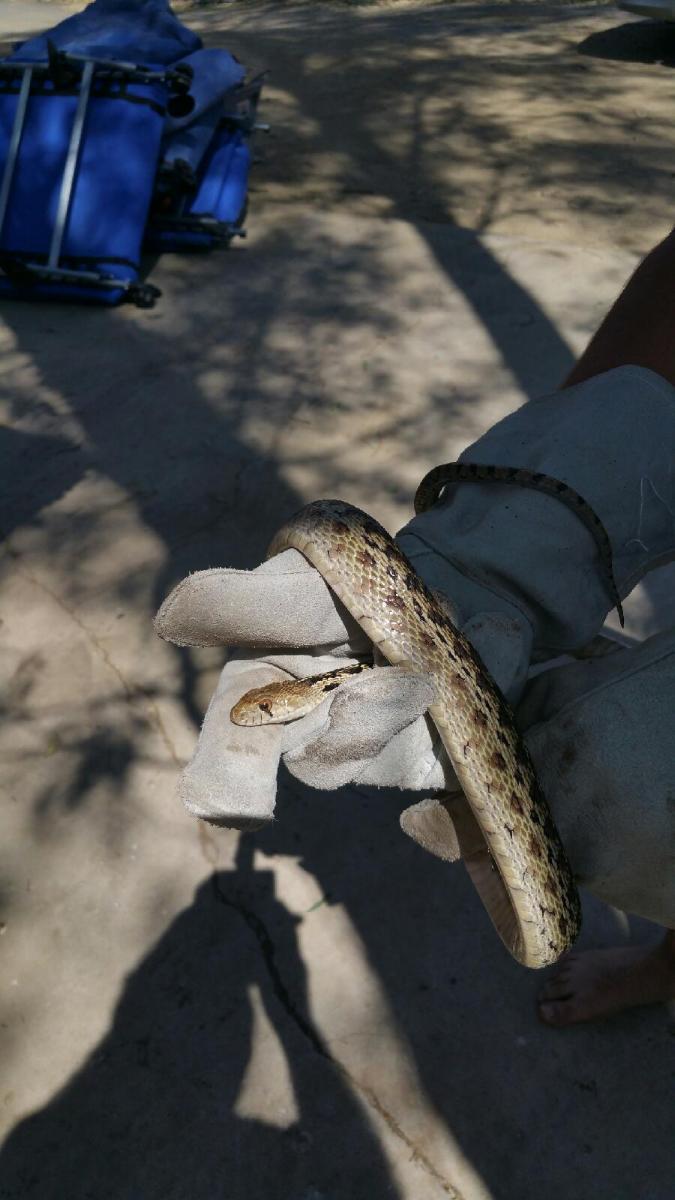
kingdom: Animalia
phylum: Chordata
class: Squamata
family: Colubridae
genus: Pituophis
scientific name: Pituophis catenifer
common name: Gopher snake
